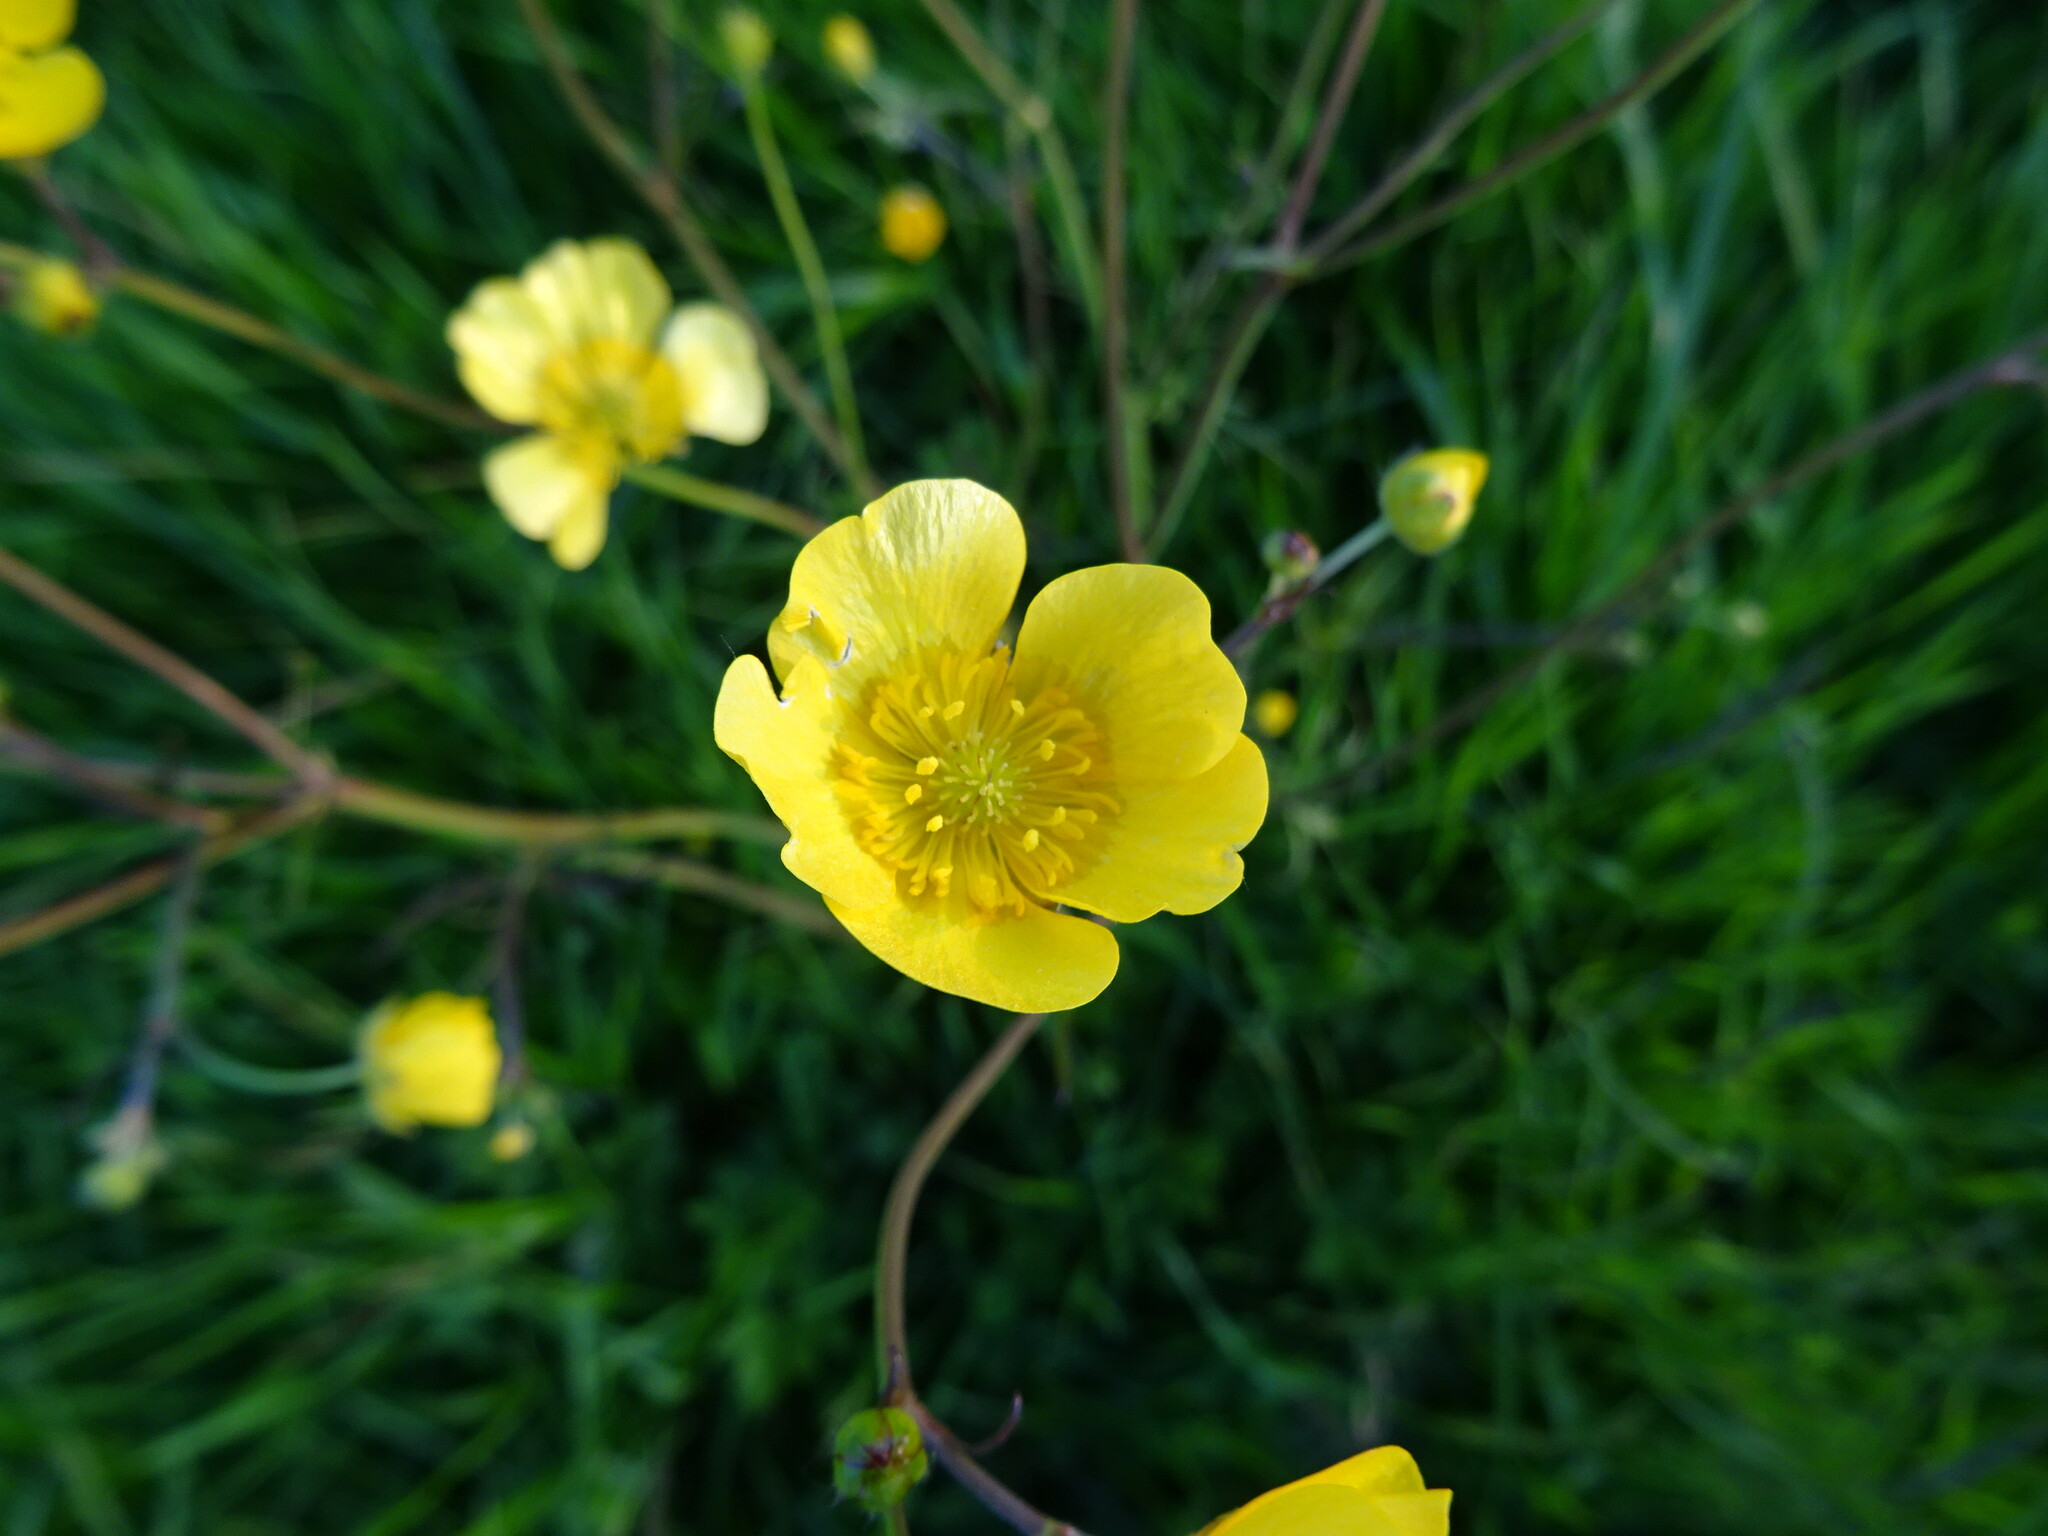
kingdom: Plantae
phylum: Tracheophyta
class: Magnoliopsida
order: Ranunculales
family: Ranunculaceae
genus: Ranunculus
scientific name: Ranunculus acris
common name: Meadow buttercup
